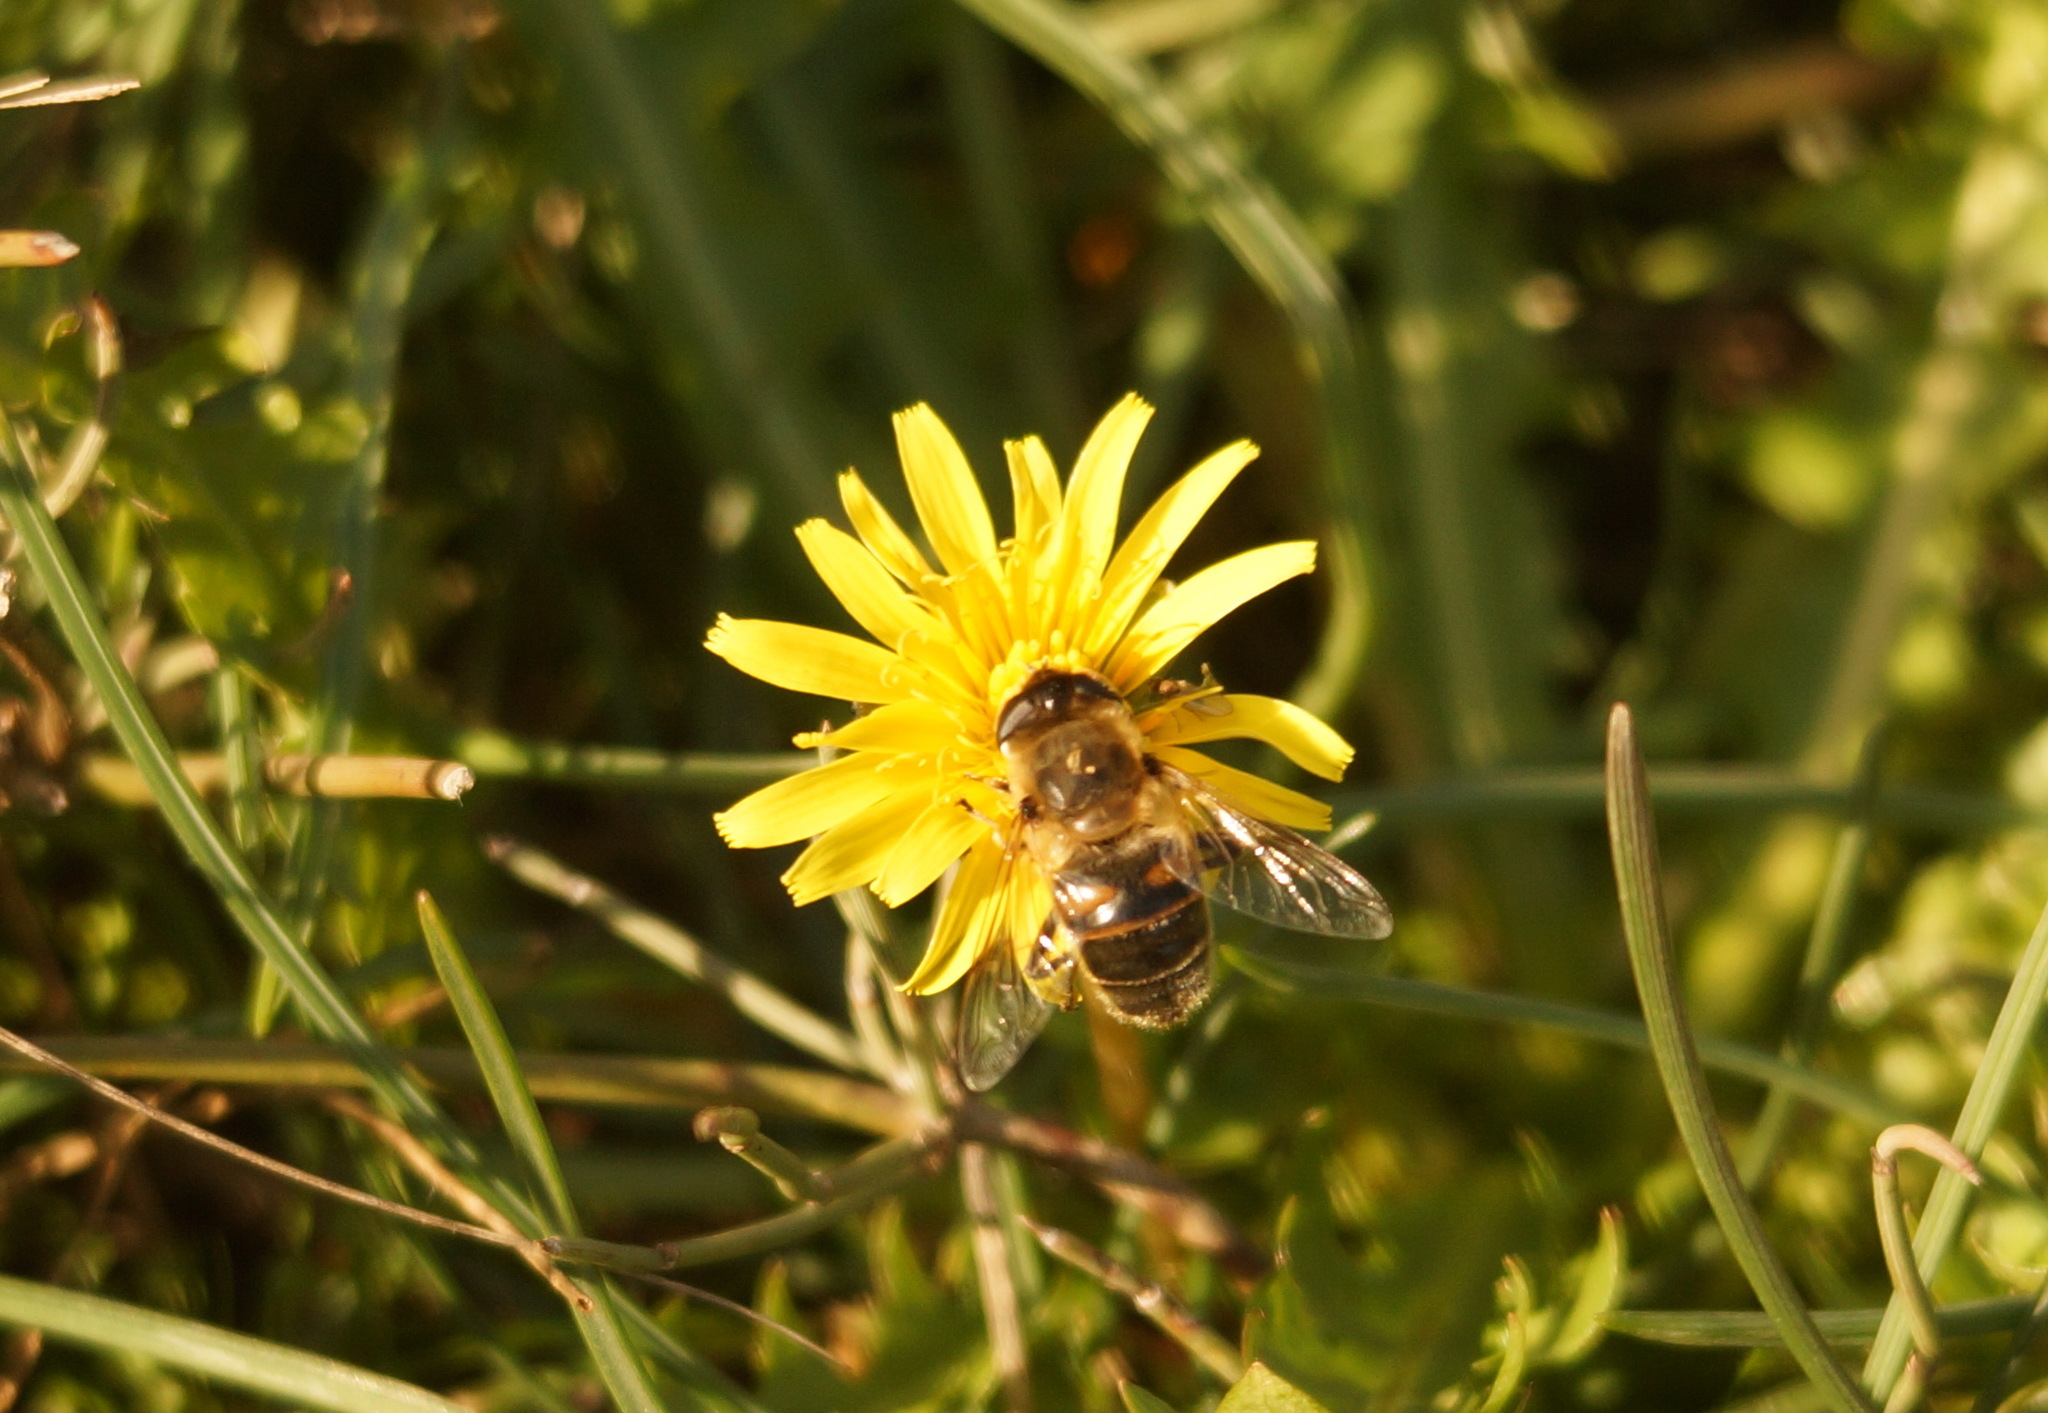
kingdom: Animalia
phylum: Arthropoda
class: Insecta
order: Diptera
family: Syrphidae
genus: Eristalis
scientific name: Eristalis tenax
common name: Drone fly
